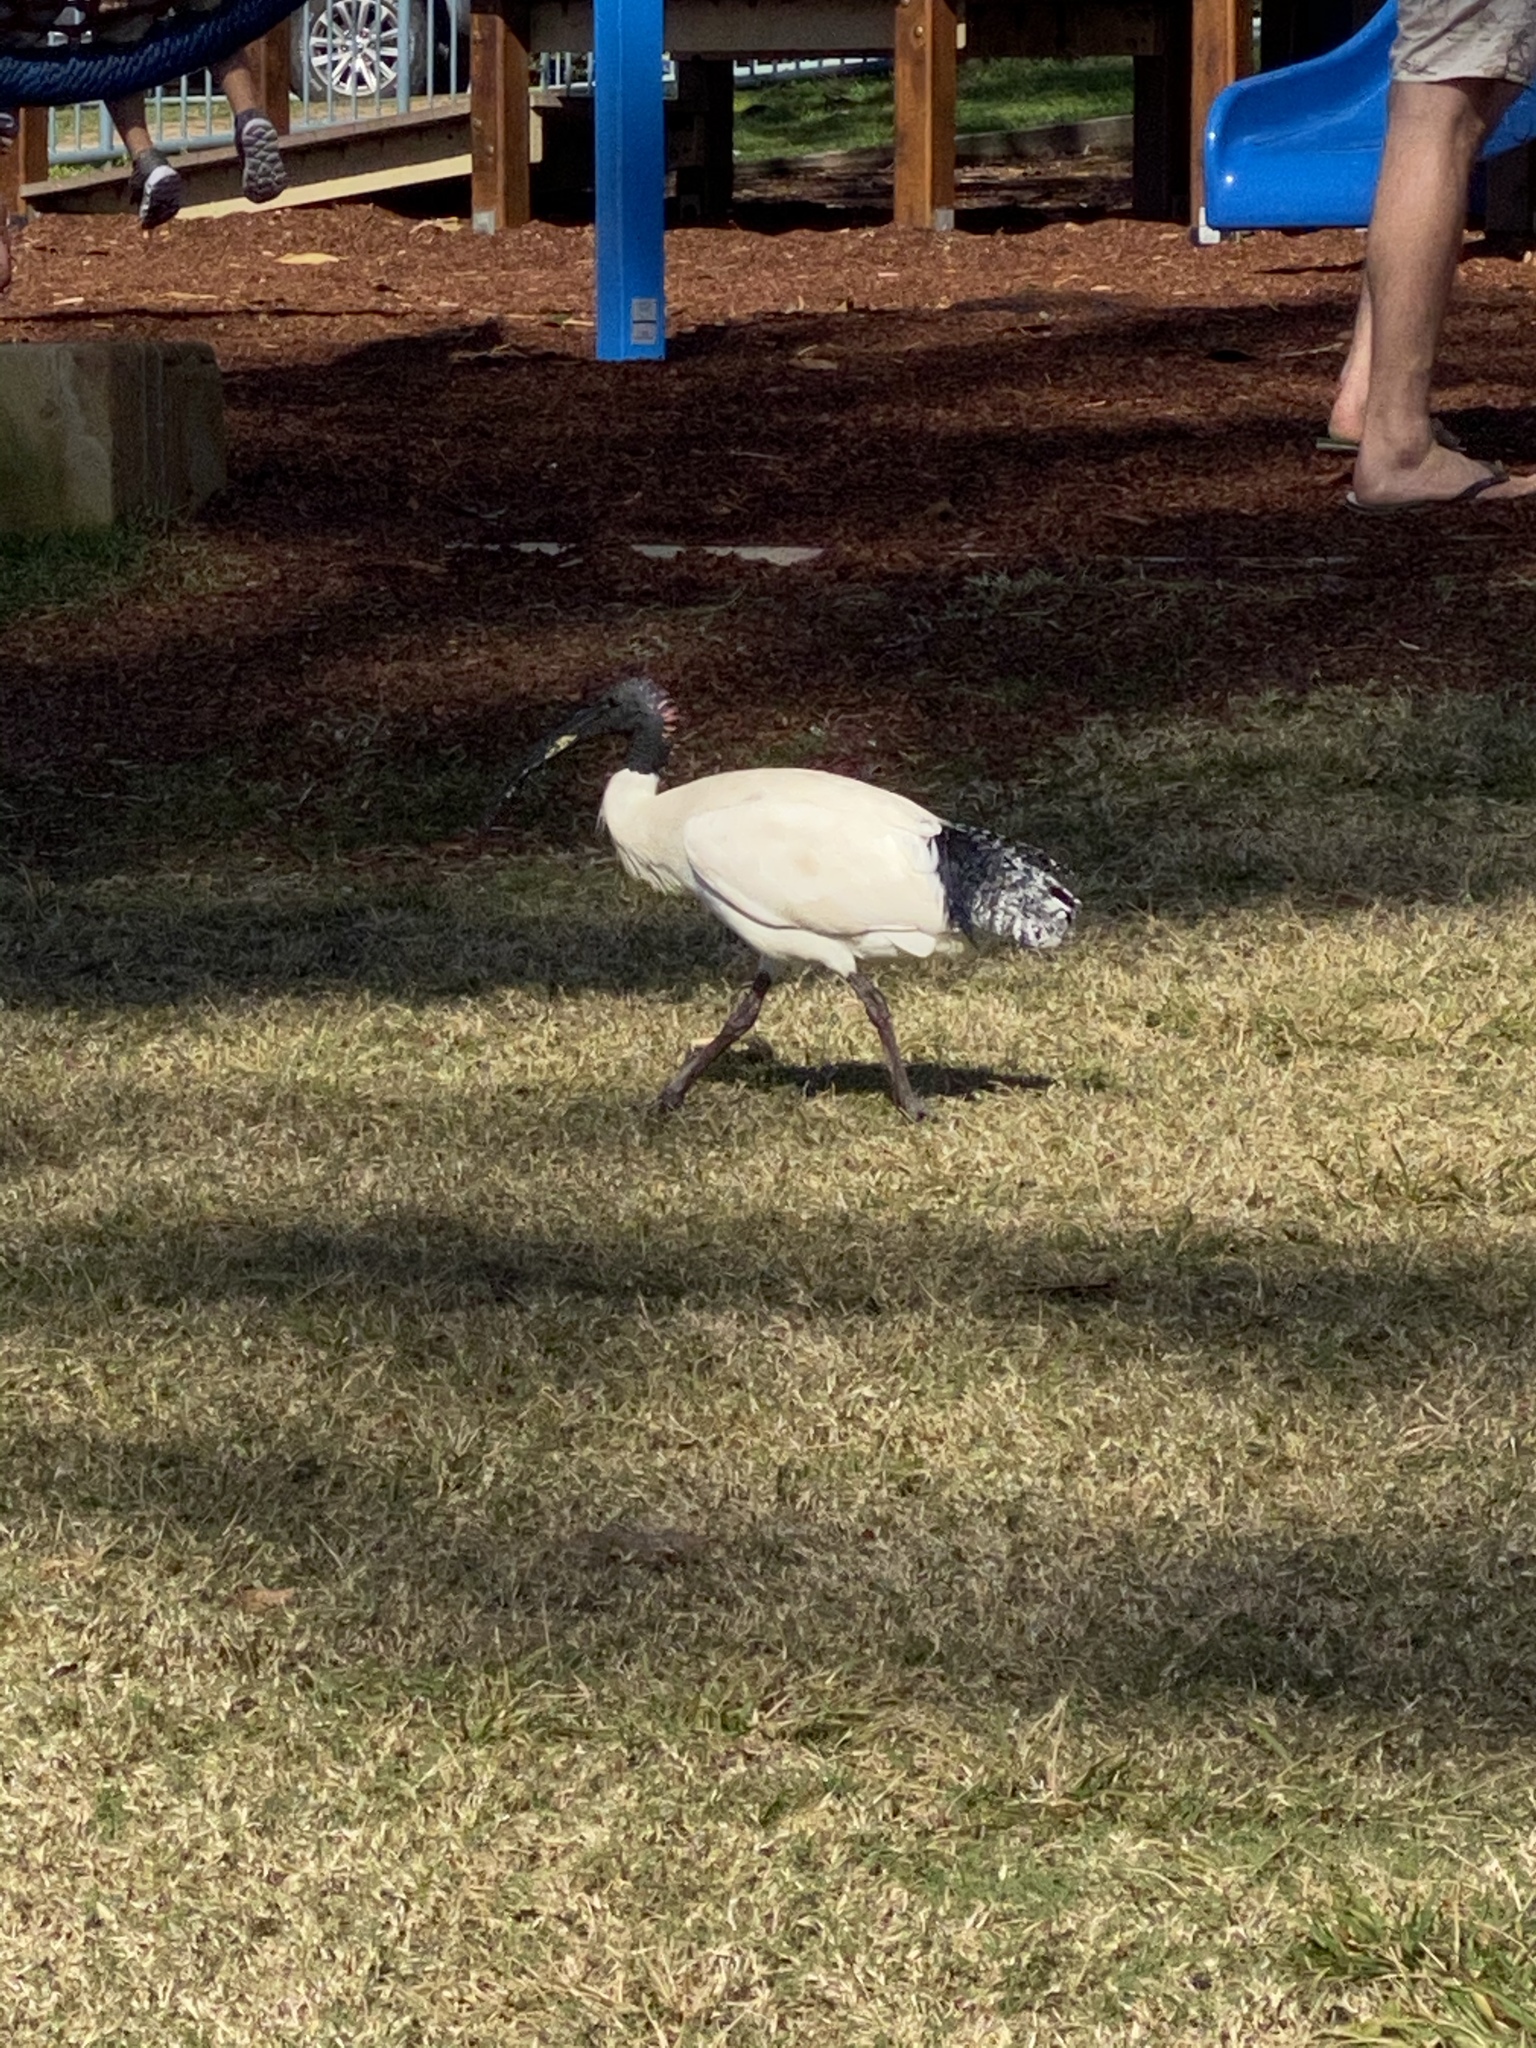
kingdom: Animalia
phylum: Chordata
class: Aves
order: Pelecaniformes
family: Threskiornithidae
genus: Threskiornis
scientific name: Threskiornis molucca
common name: Australian white ibis
